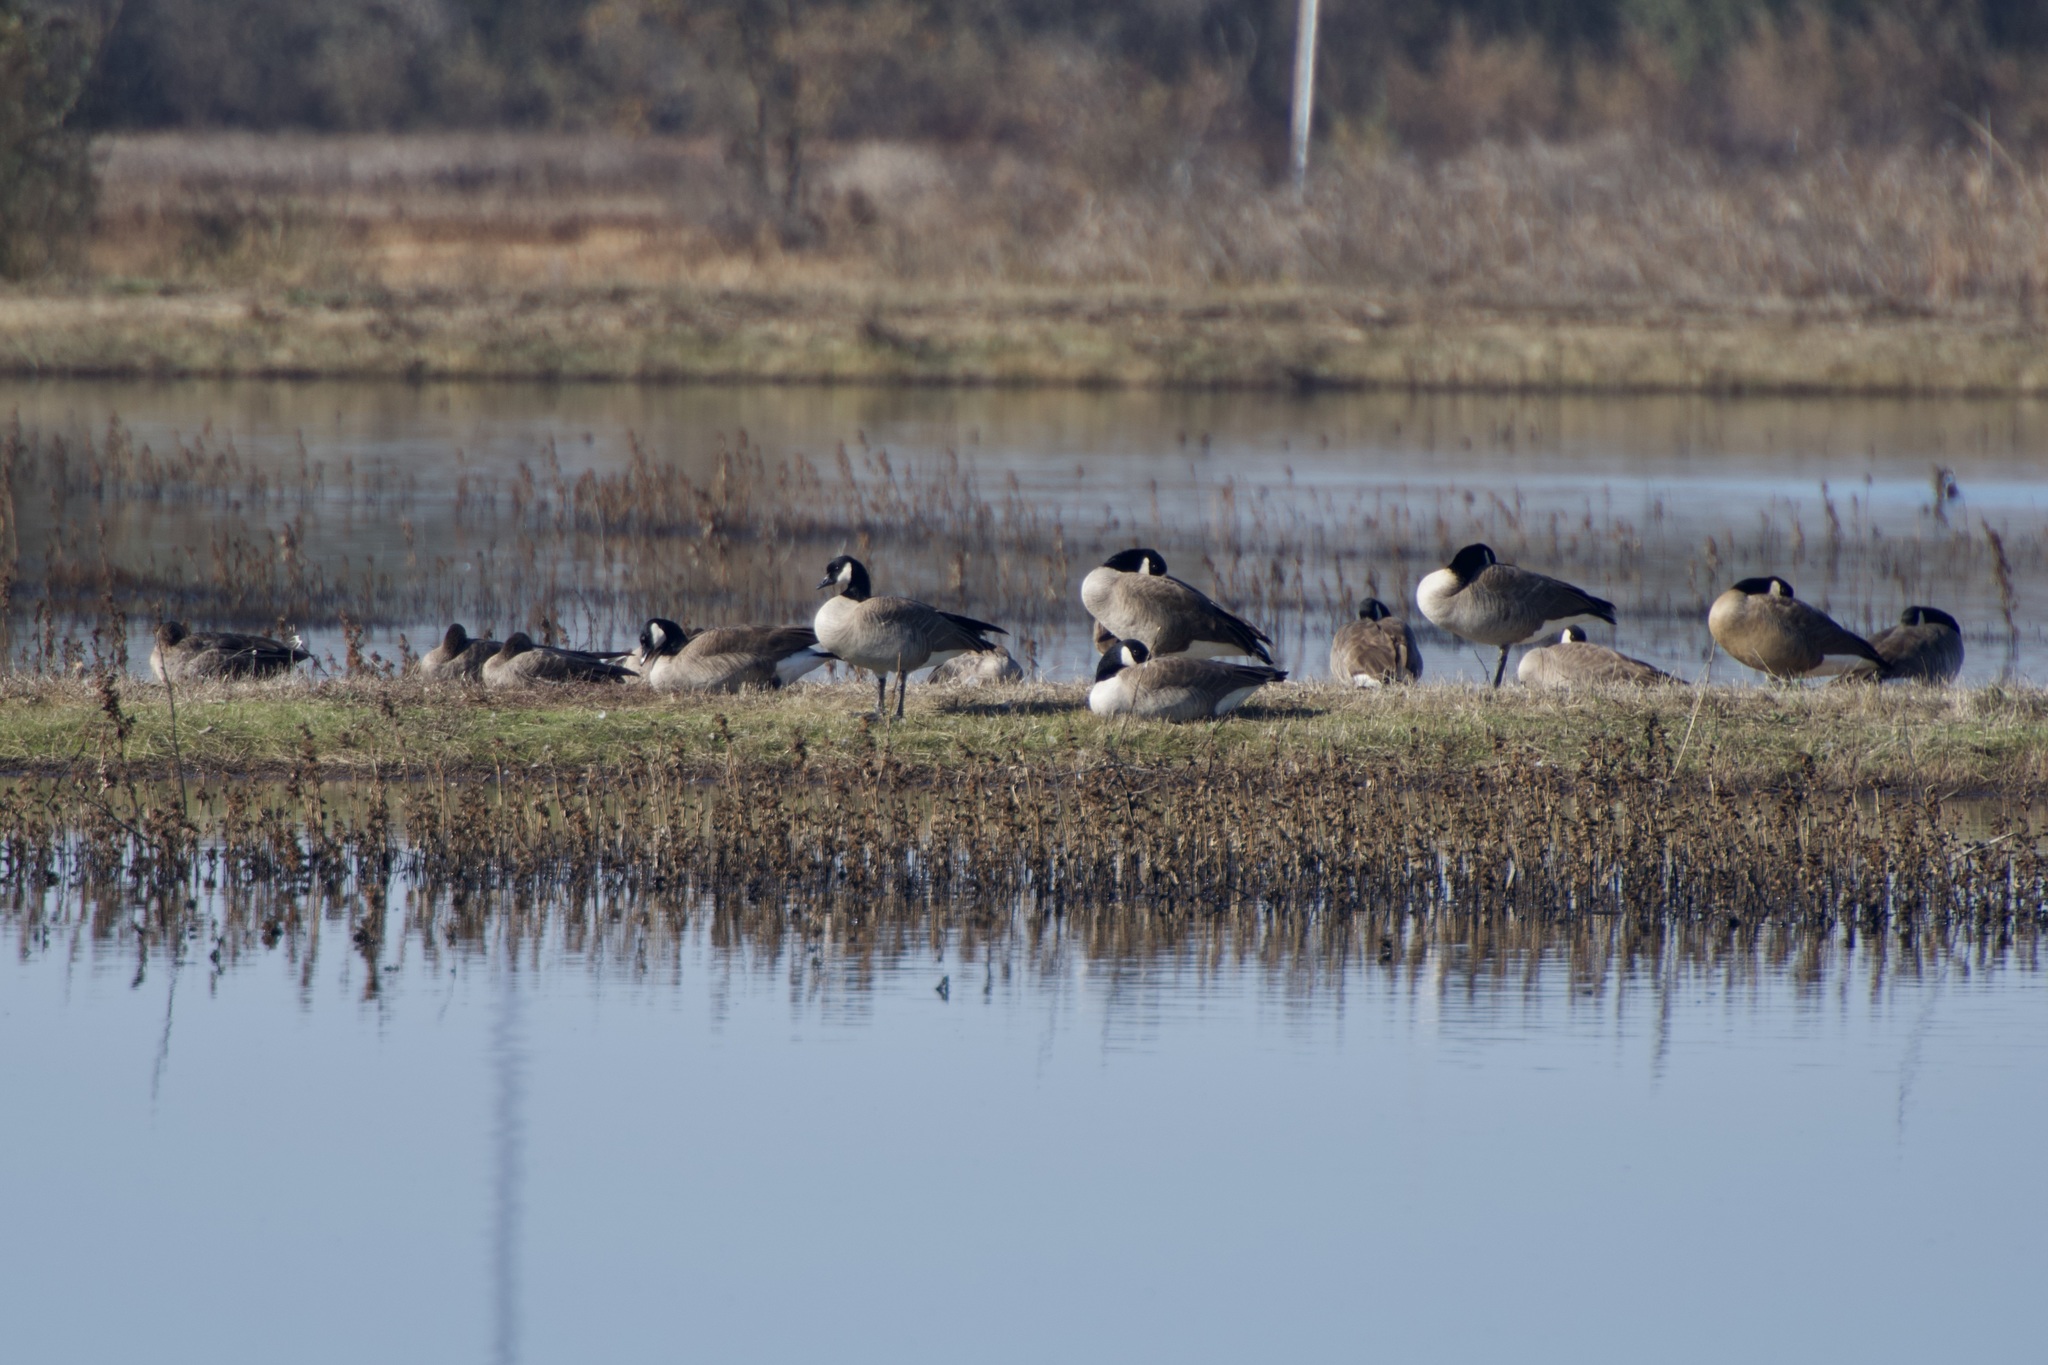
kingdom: Animalia
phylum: Chordata
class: Aves
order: Anseriformes
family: Anatidae
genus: Branta
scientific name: Branta hutchinsii
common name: Cackling goose
